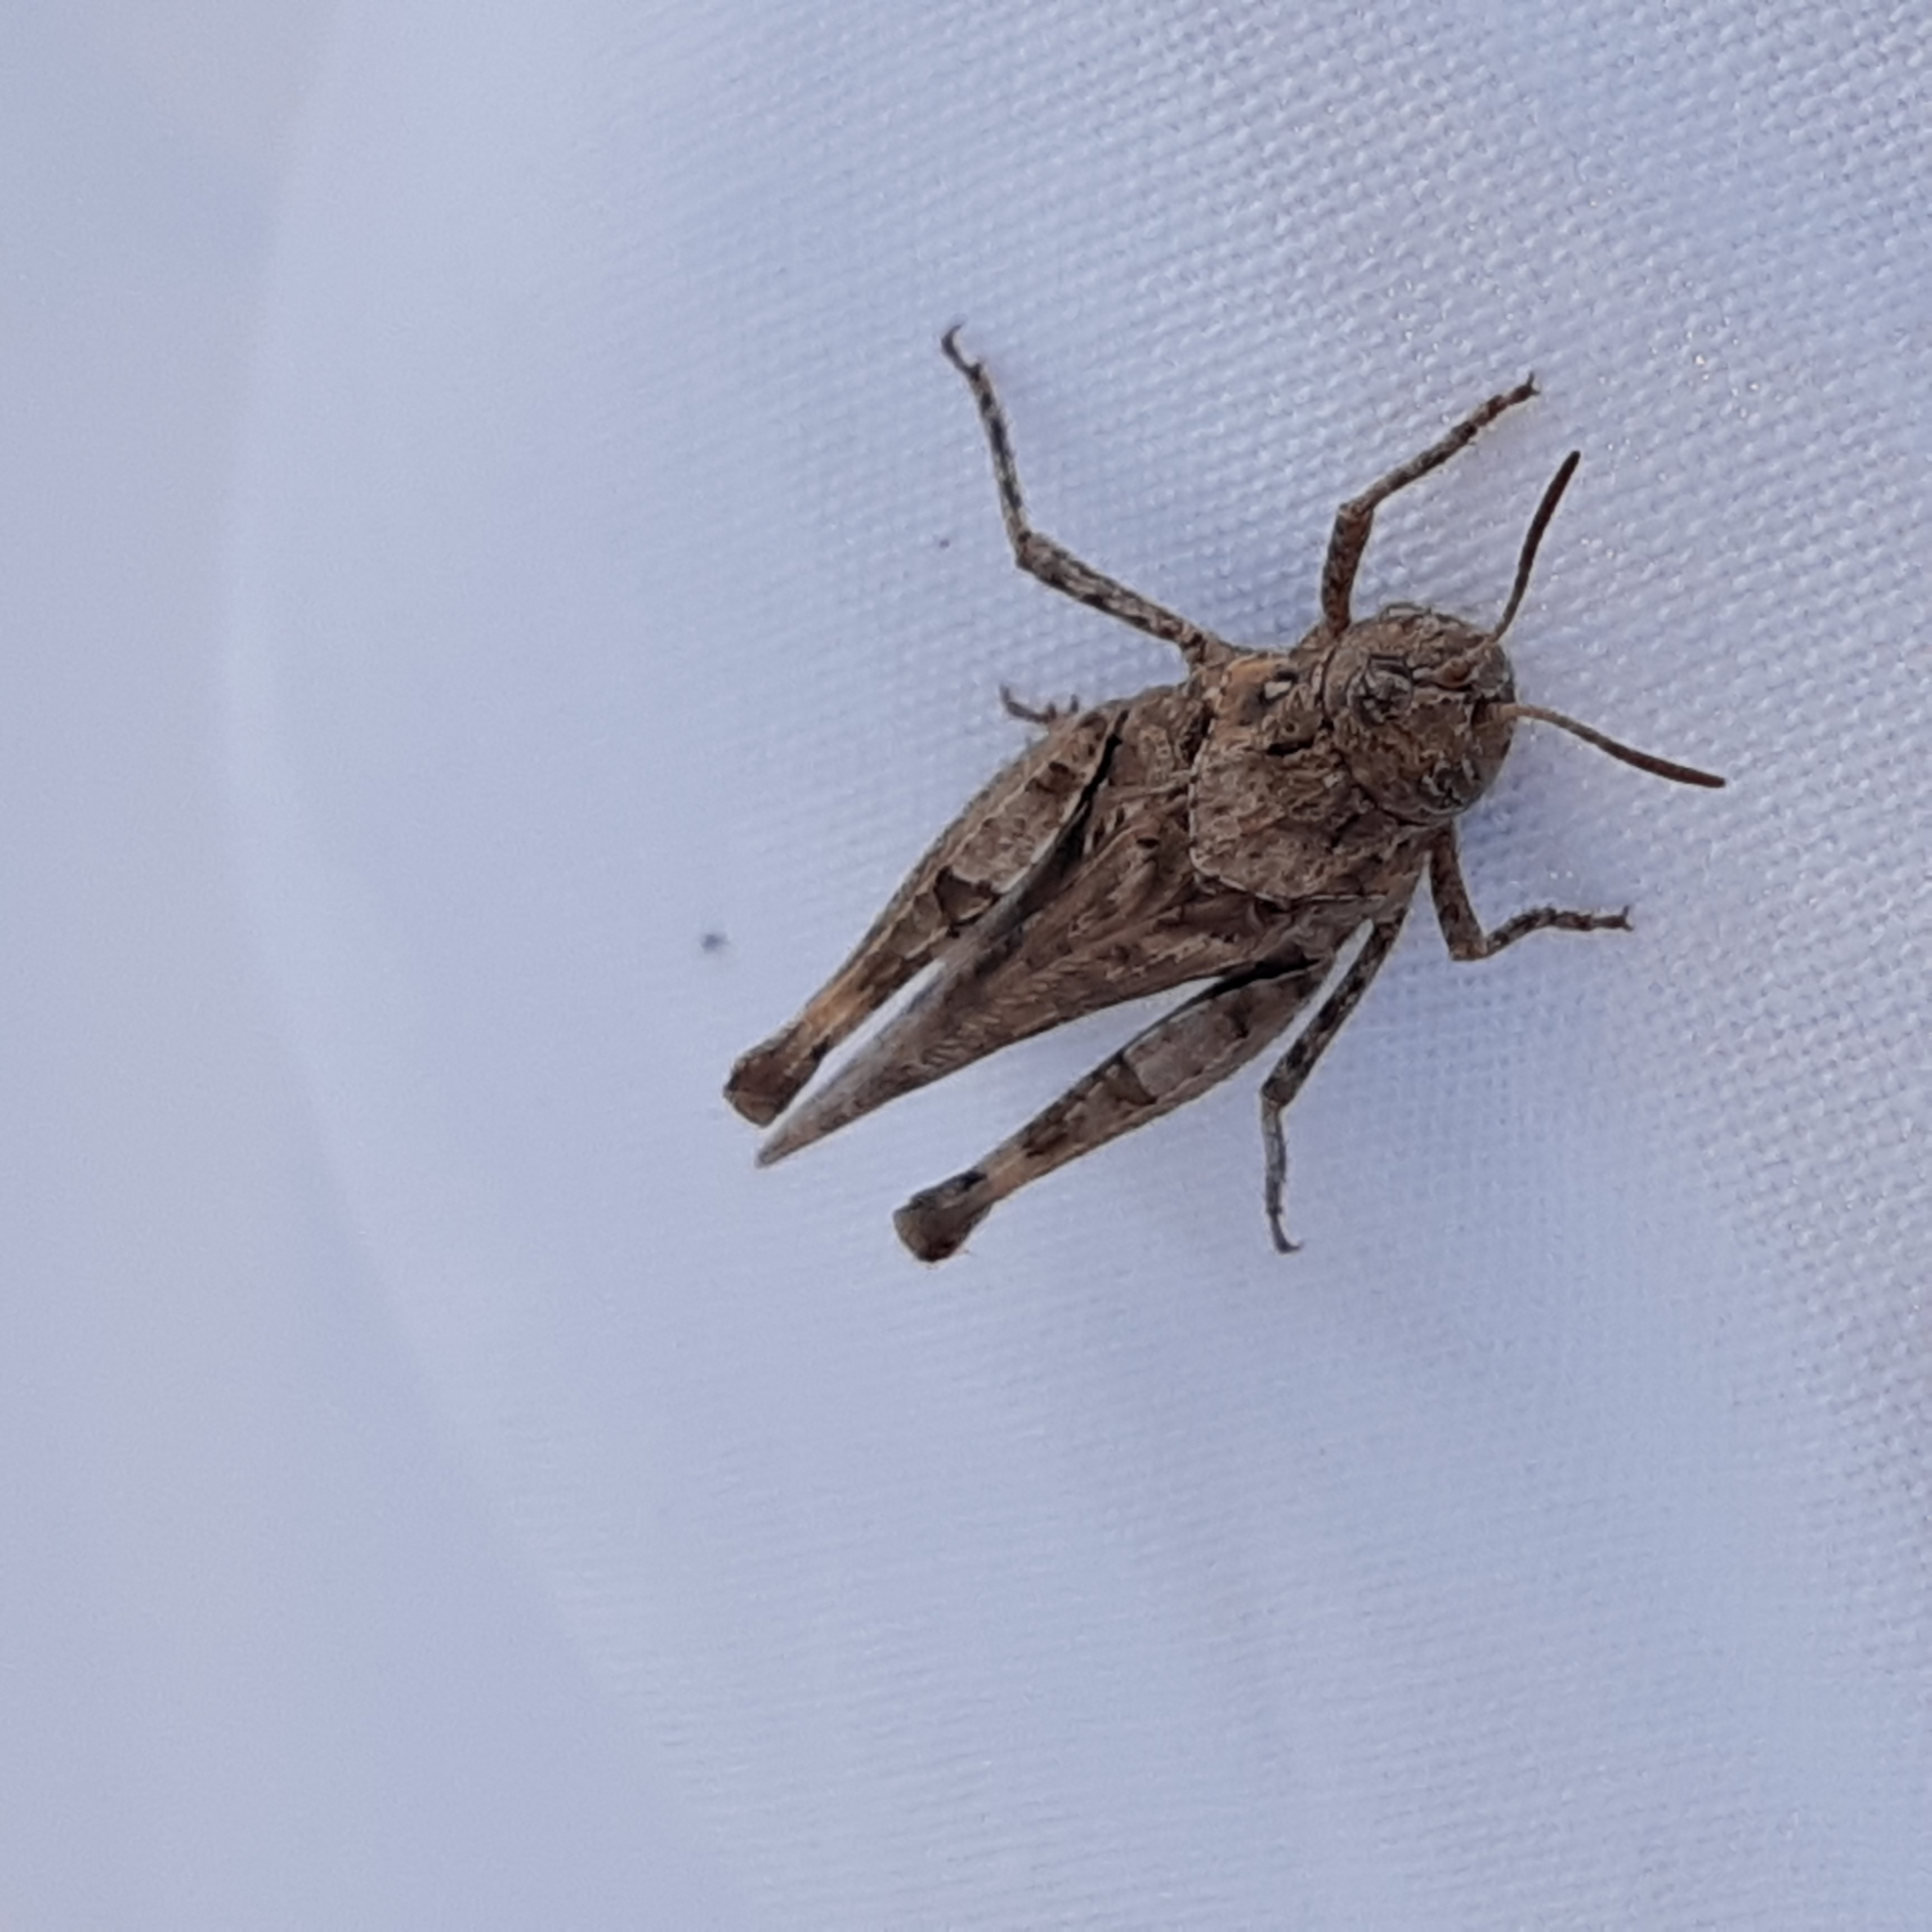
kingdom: Animalia
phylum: Arthropoda
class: Insecta
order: Orthoptera
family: Acrididae
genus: Acrotylus
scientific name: Acrotylus insubricus
